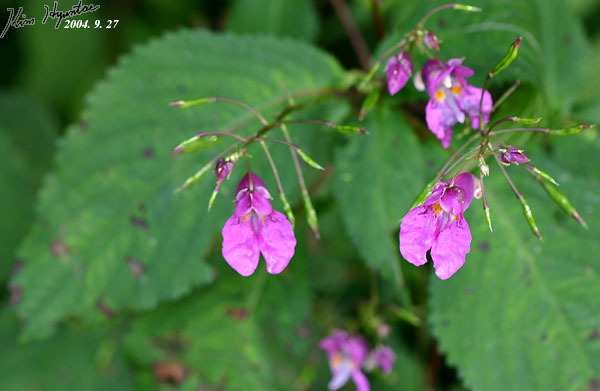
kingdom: Plantae
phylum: Tracheophyta
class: Magnoliopsida
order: Ericales
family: Balsaminaceae
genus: Impatiens
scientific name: Impatiens textorii
